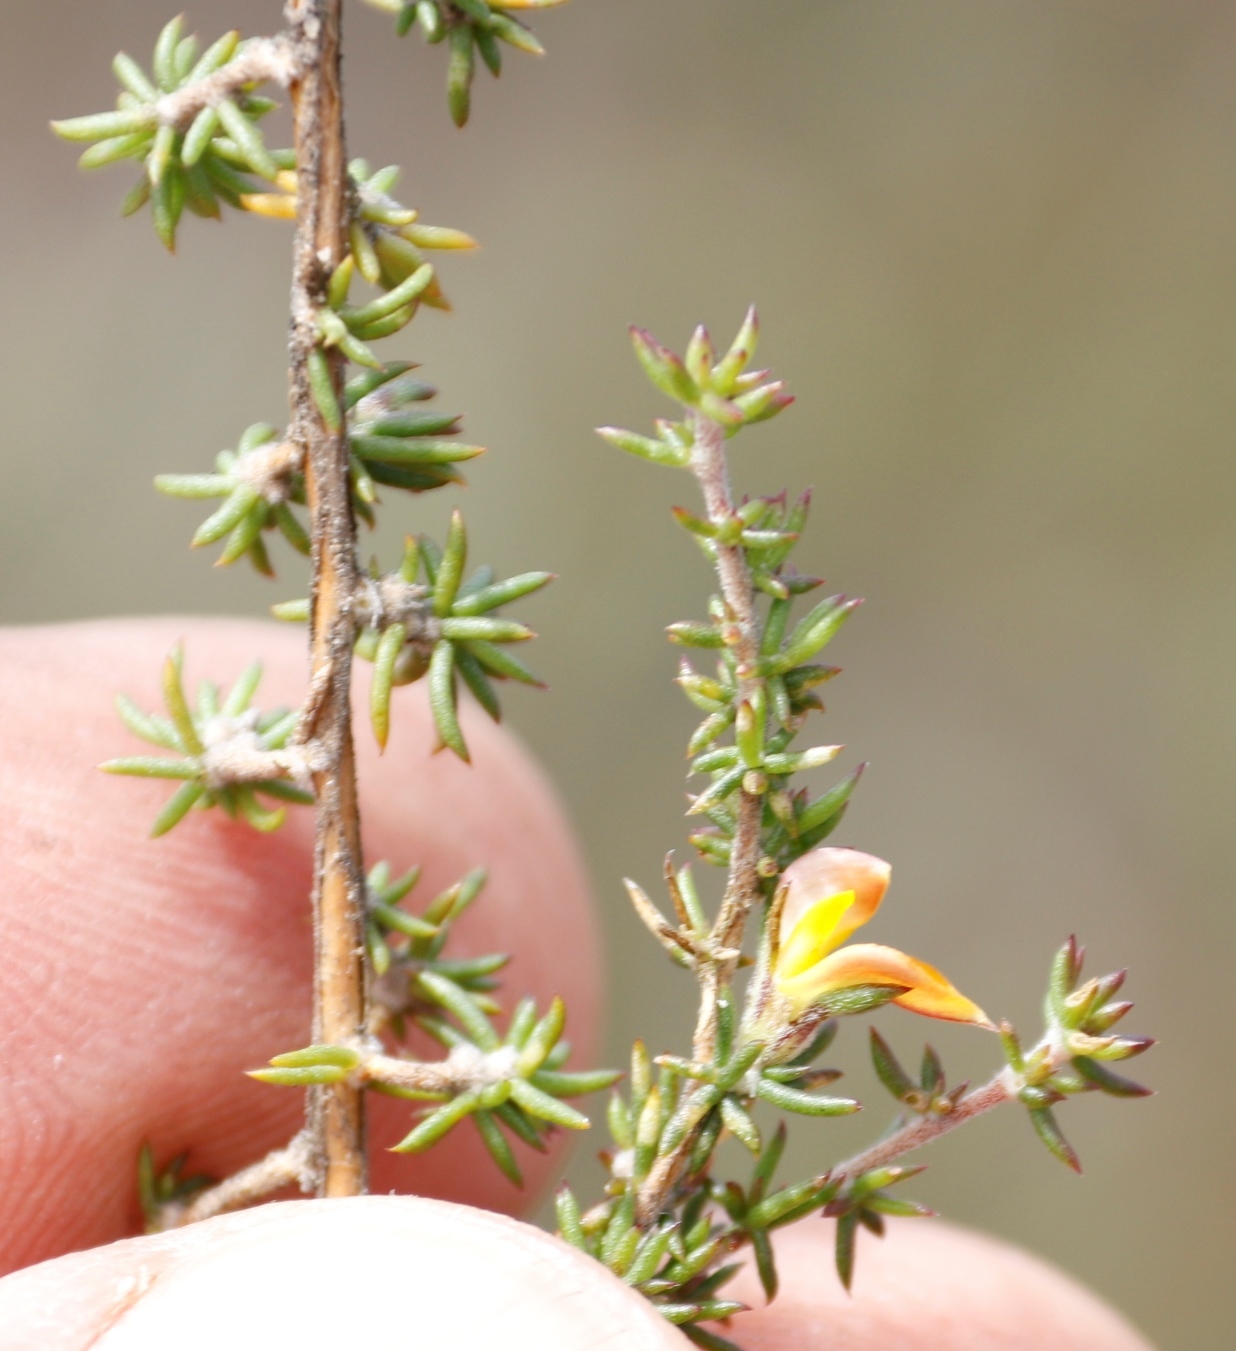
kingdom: Plantae
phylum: Tracheophyta
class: Magnoliopsida
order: Fabales
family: Fabaceae
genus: Aspalathus
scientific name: Aspalathus juniperina
